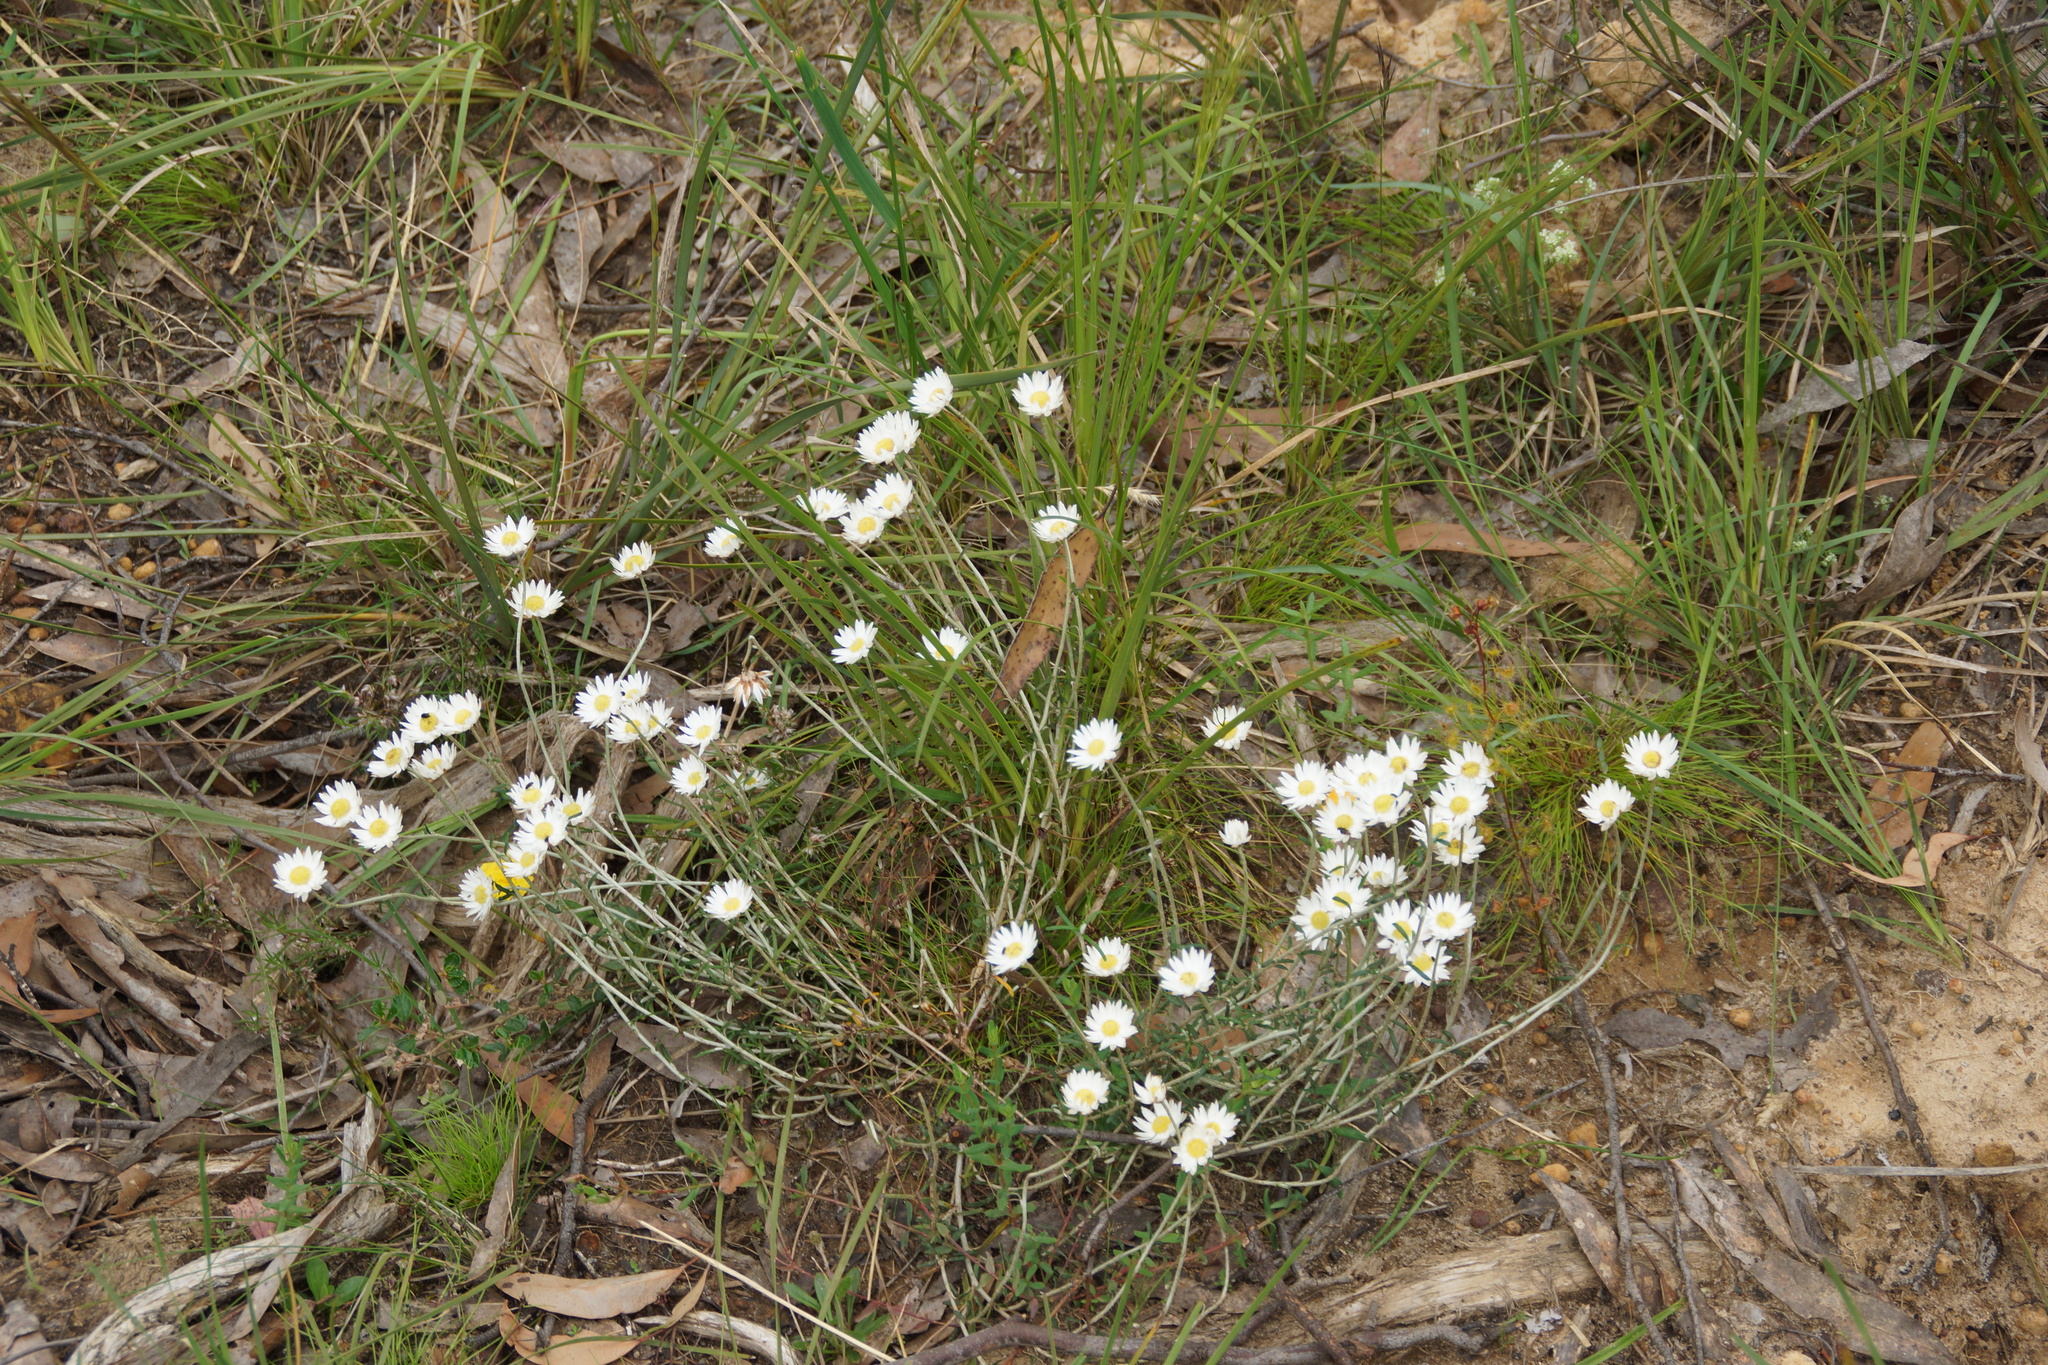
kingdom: Plantae
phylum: Tracheophyta
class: Magnoliopsida
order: Asterales
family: Asteraceae
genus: Argentipallium
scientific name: Argentipallium obtusifolium
